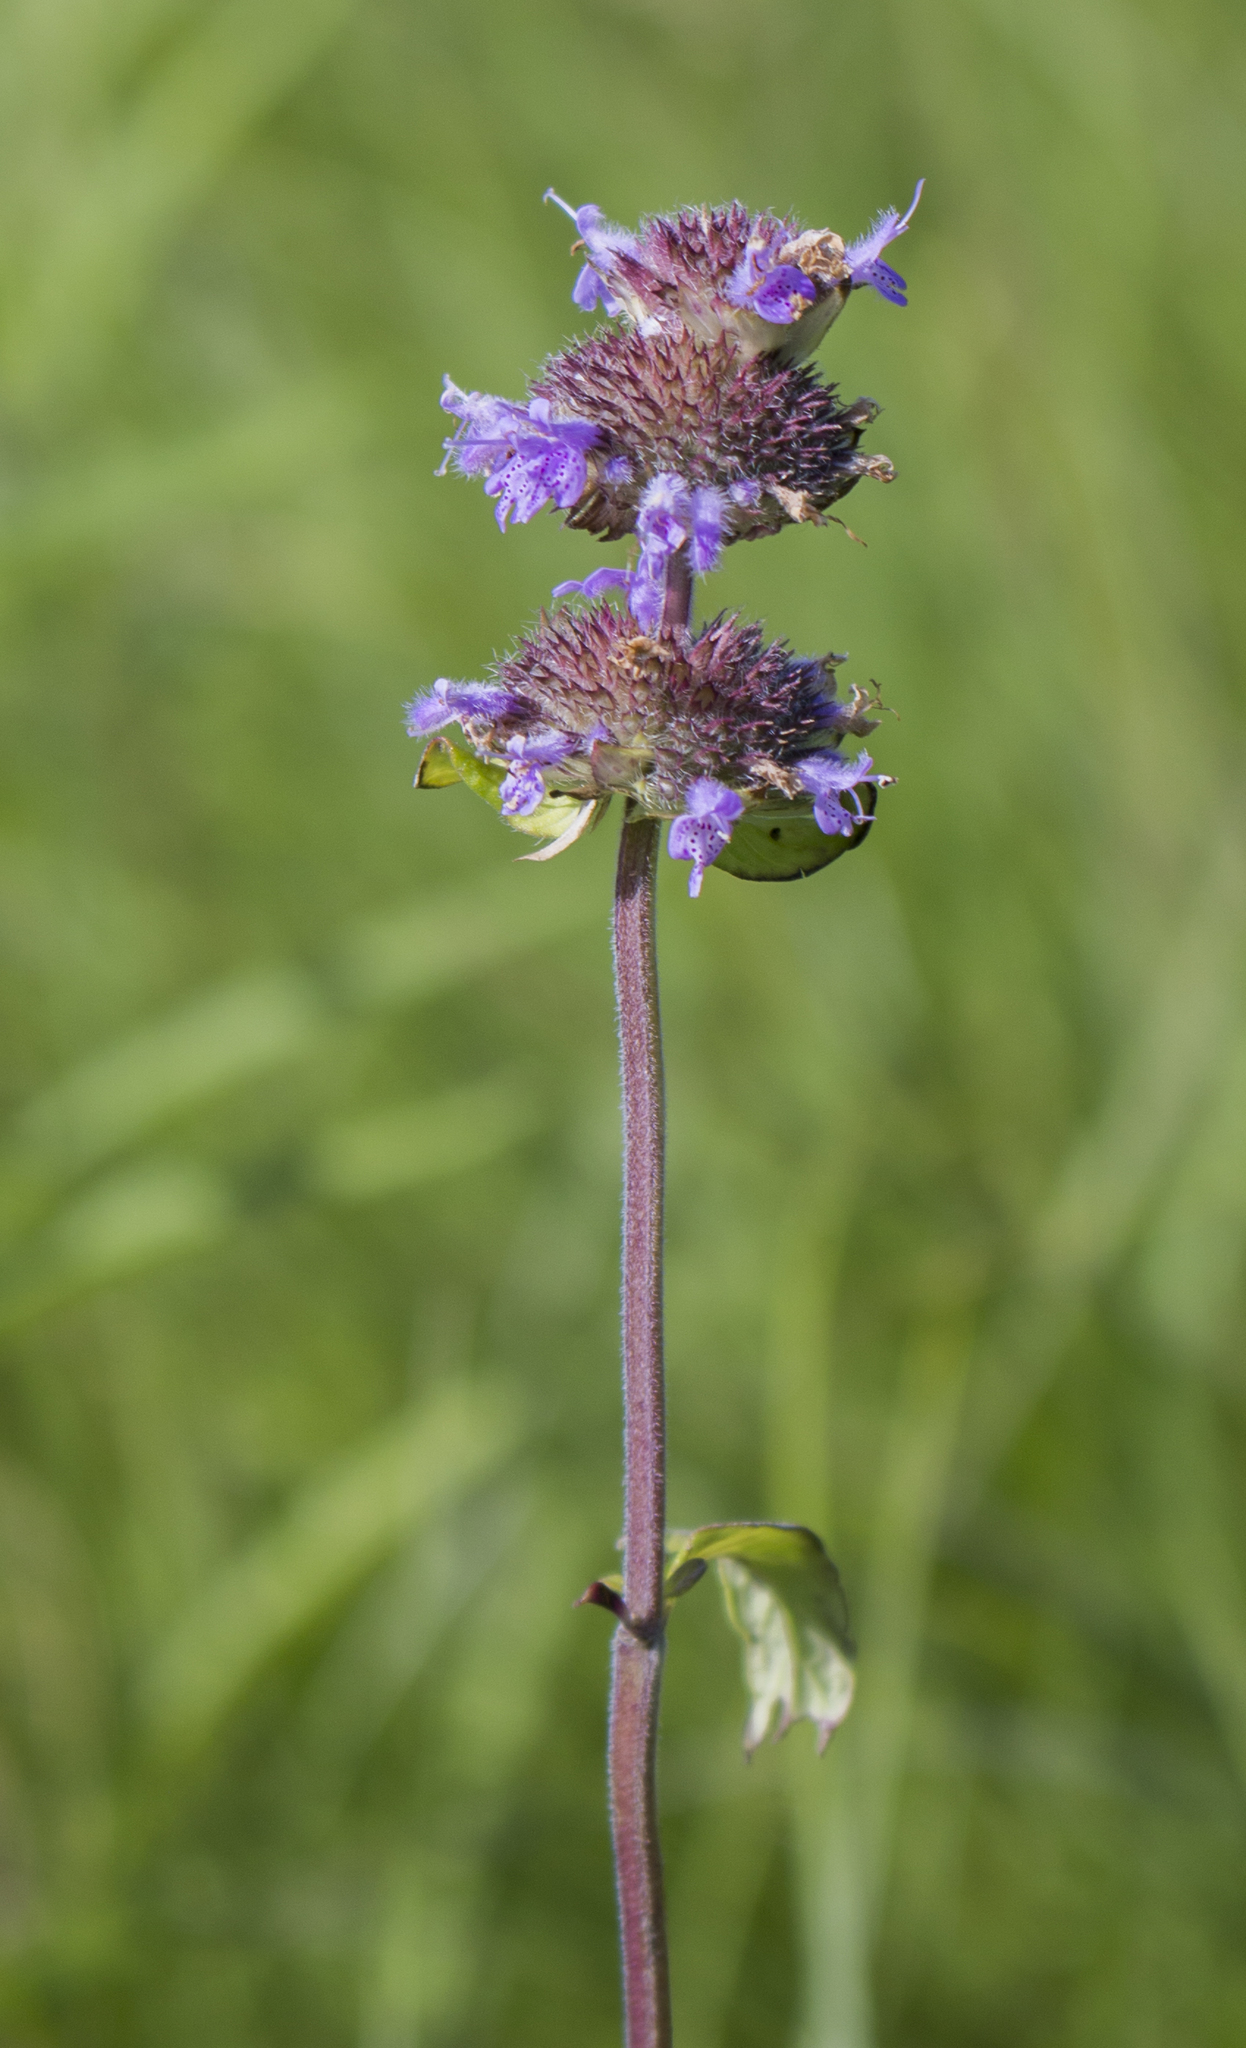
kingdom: Plantae
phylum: Tracheophyta
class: Magnoliopsida
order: Lamiales
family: Lamiaceae
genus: Blephilia
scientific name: Blephilia ciliata
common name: Downy blephilia
